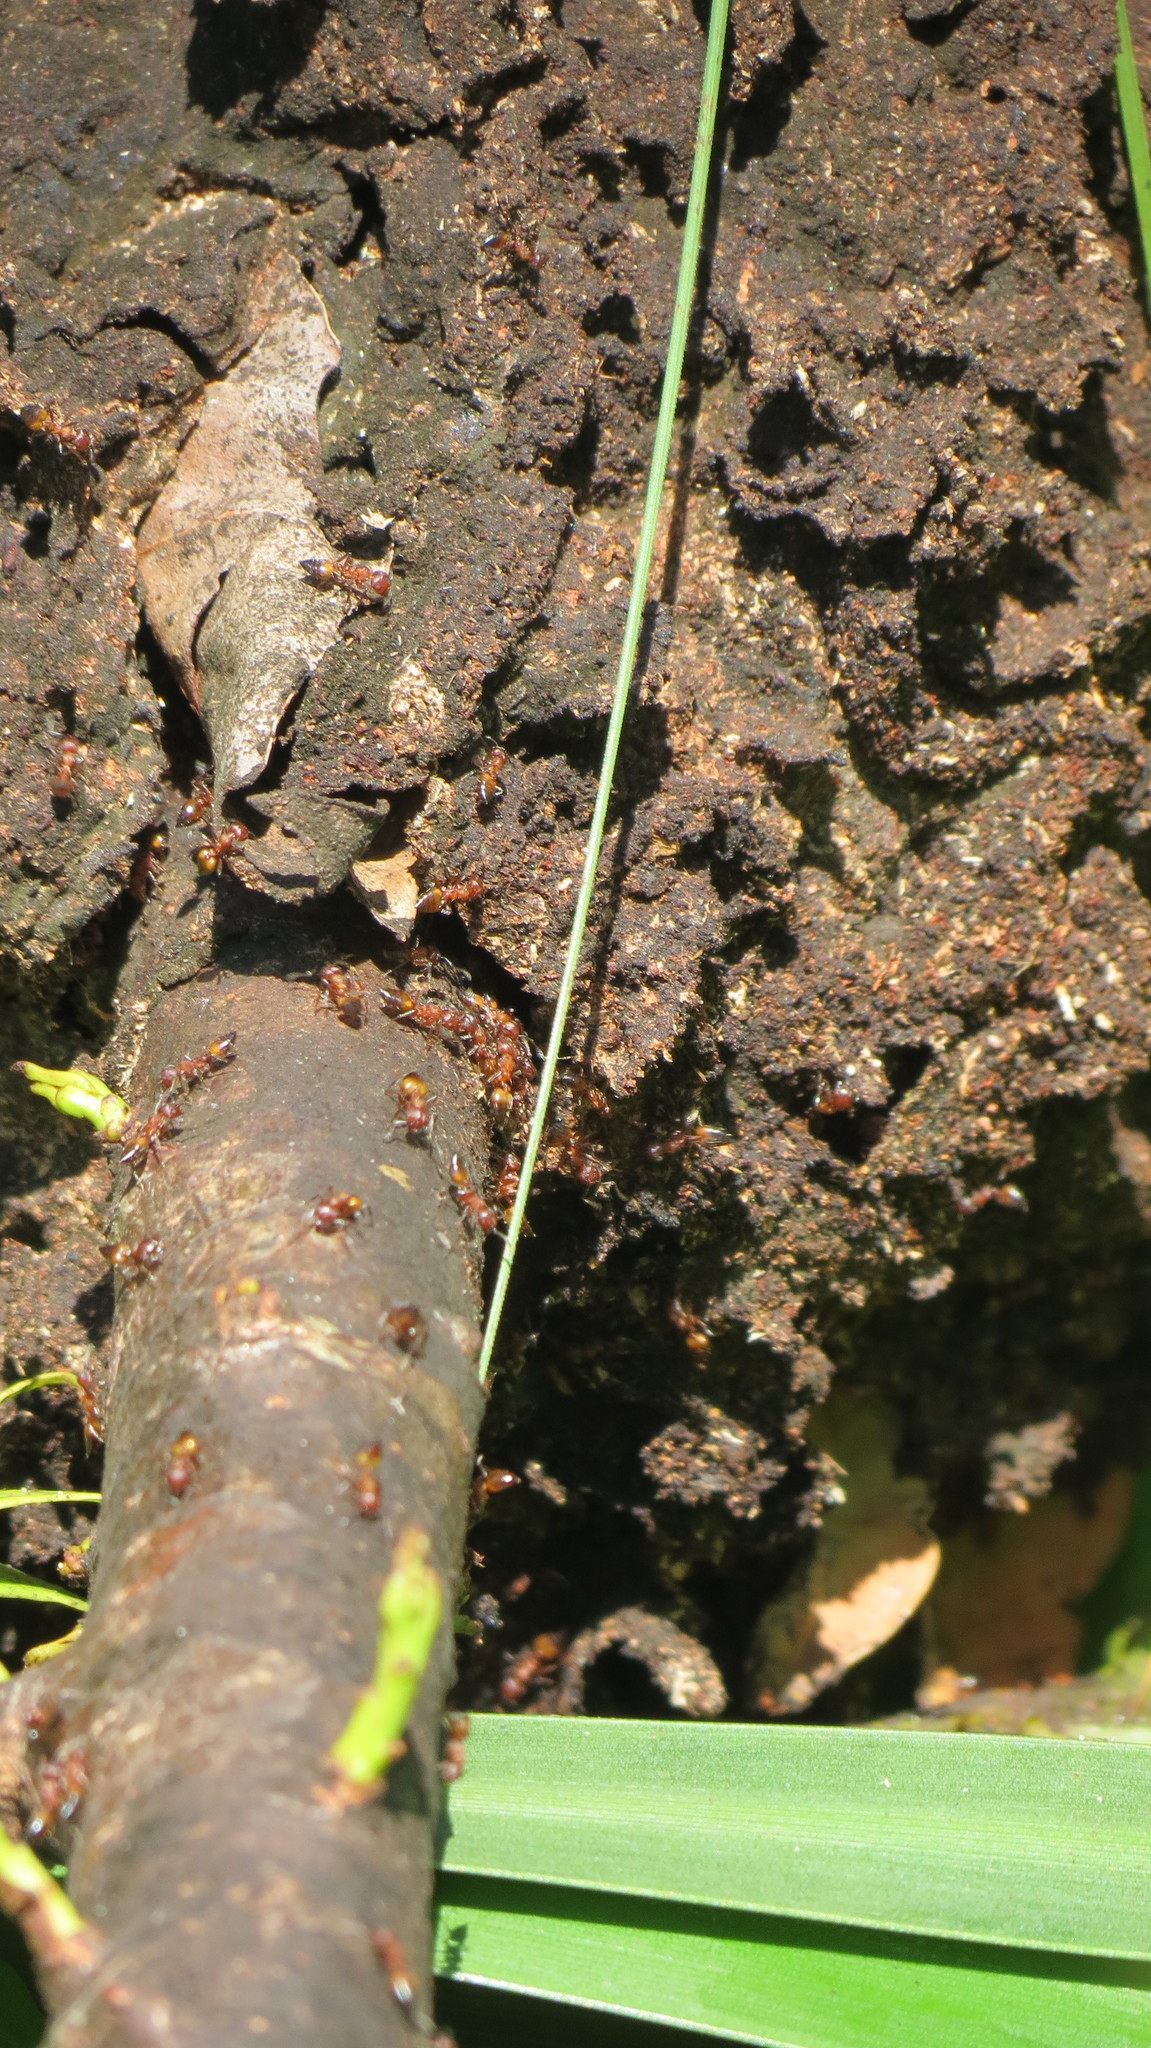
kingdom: Animalia
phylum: Arthropoda
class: Insecta
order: Hymenoptera
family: Formicidae
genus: Crematogaster
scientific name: Crematogaster castanea
